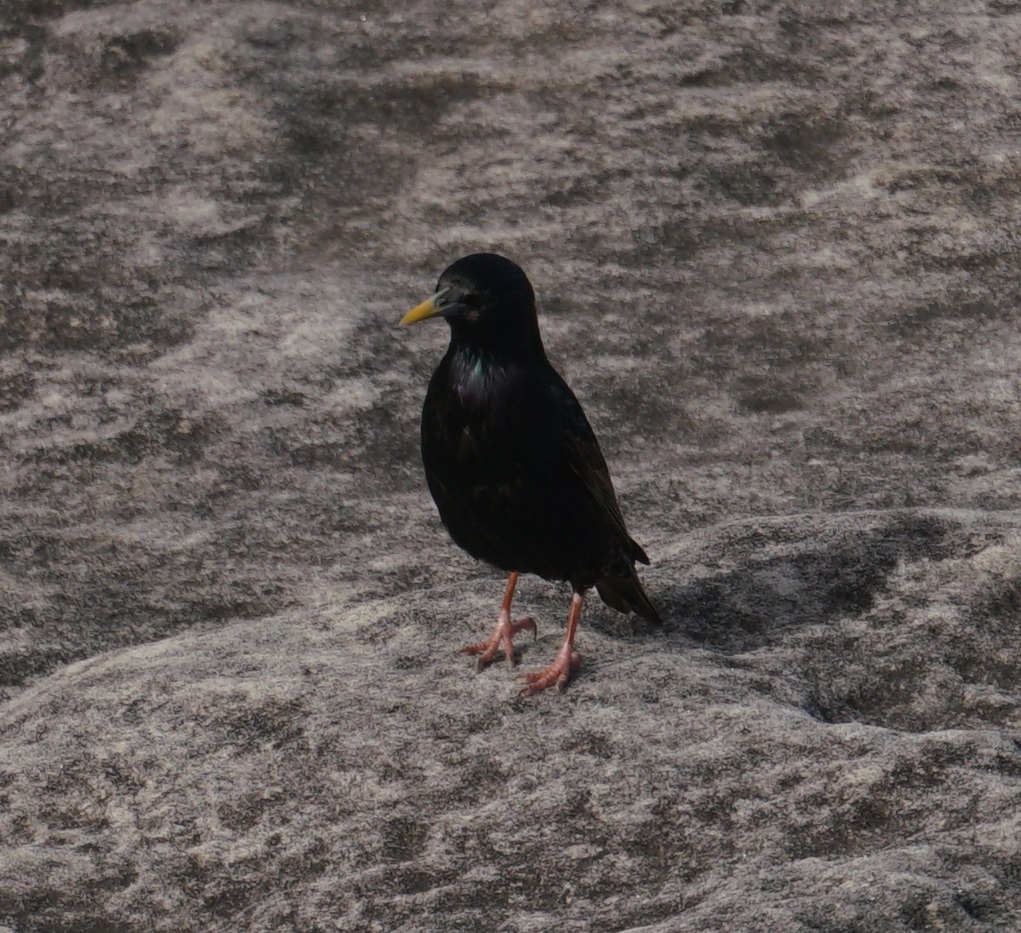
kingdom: Animalia
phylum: Chordata
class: Aves
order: Passeriformes
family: Sturnidae
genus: Sturnus
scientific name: Sturnus vulgaris
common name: Common starling
